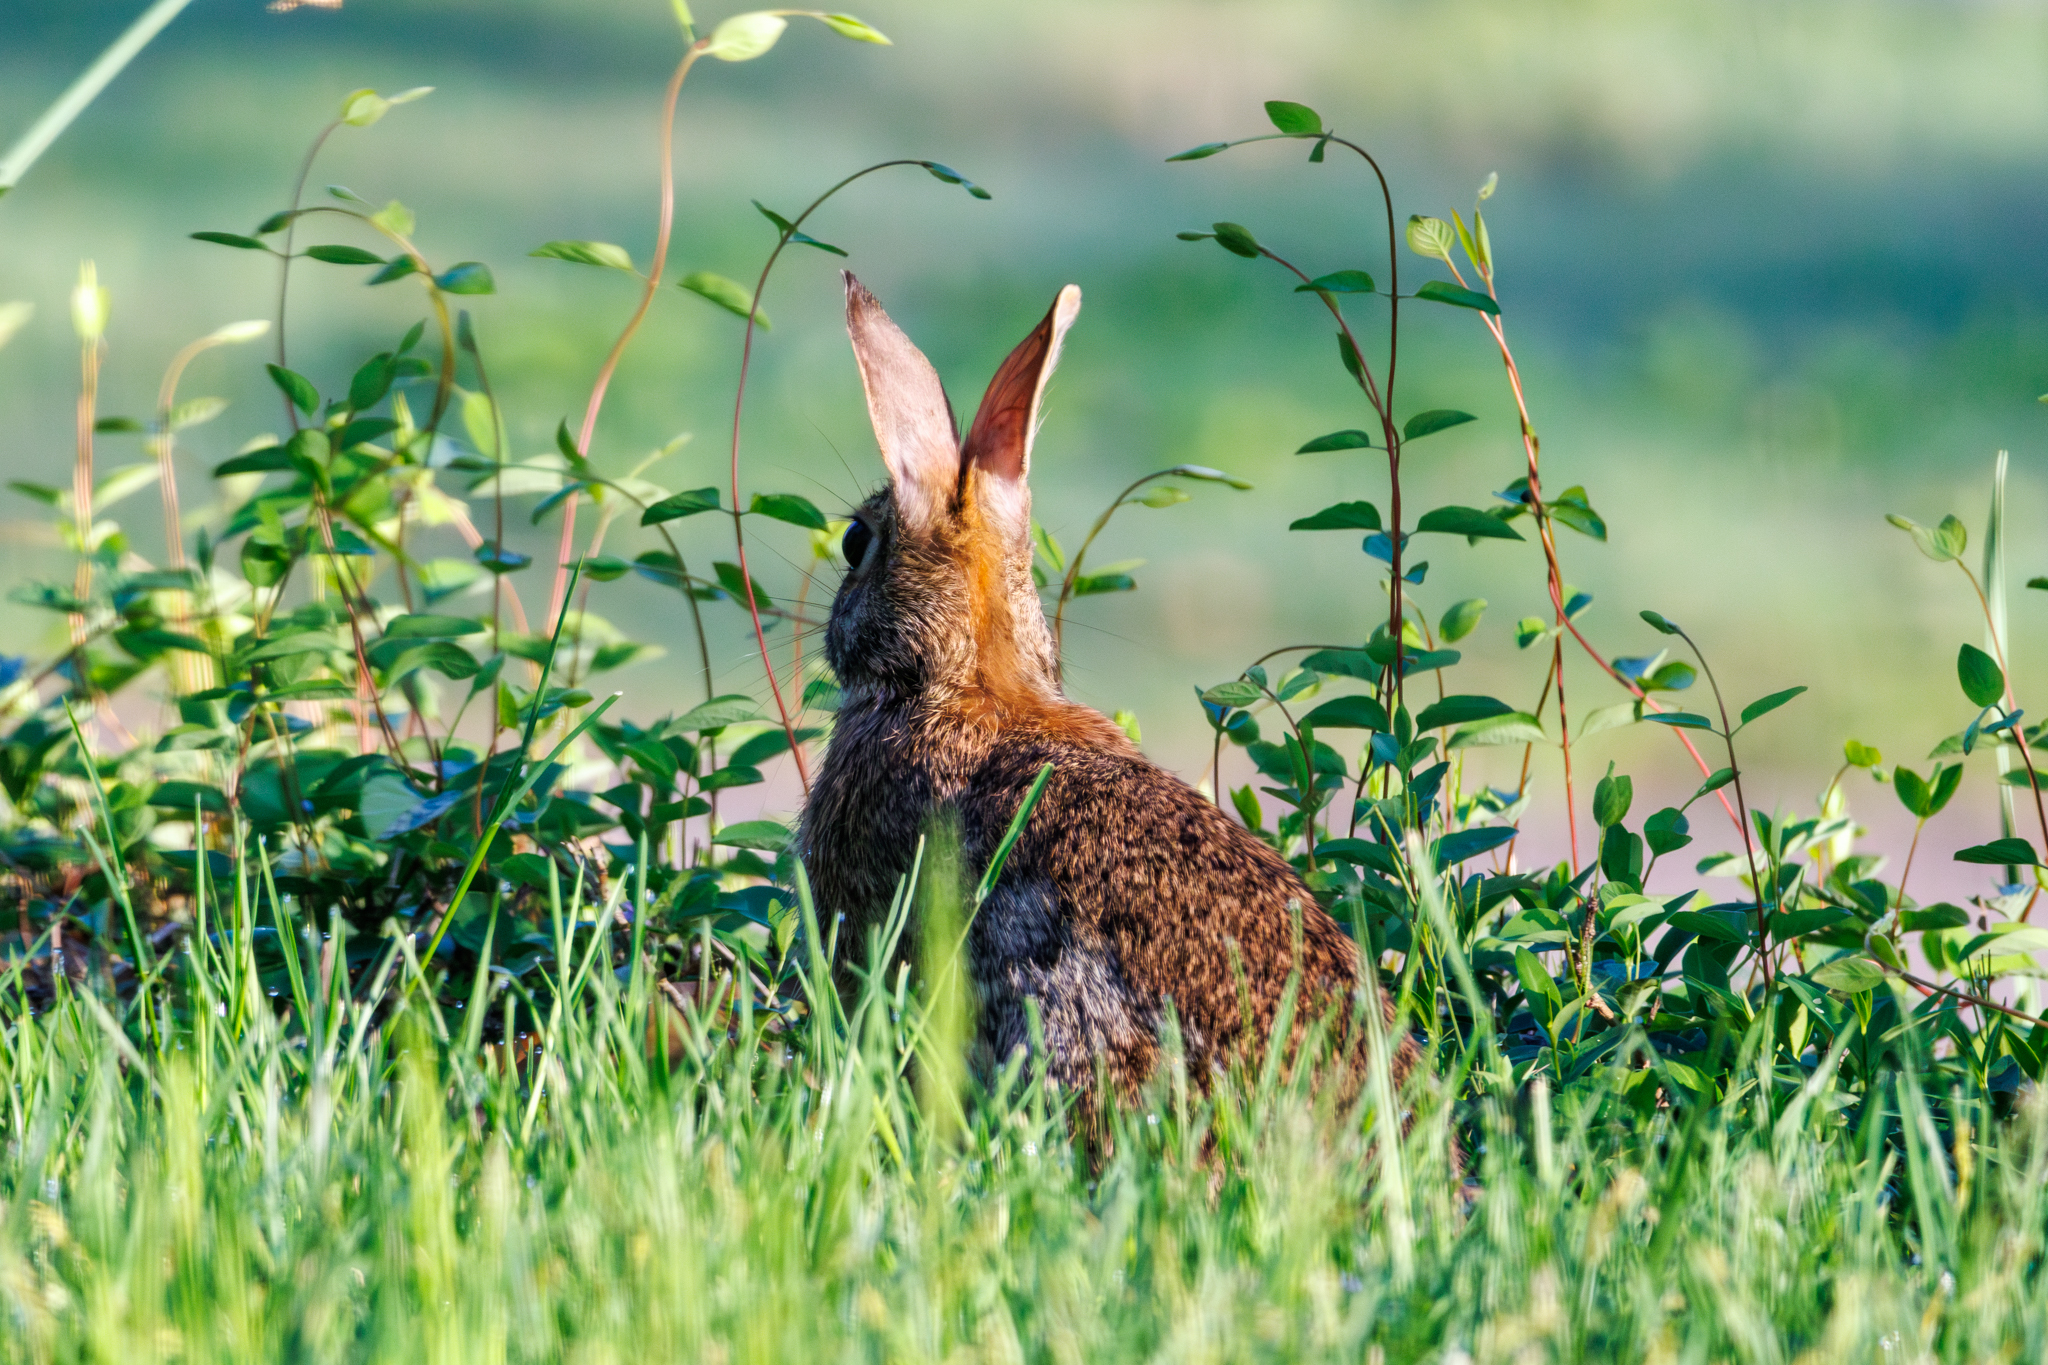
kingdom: Animalia
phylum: Chordata
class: Mammalia
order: Lagomorpha
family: Leporidae
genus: Sylvilagus
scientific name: Sylvilagus floridanus
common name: Eastern cottontail
